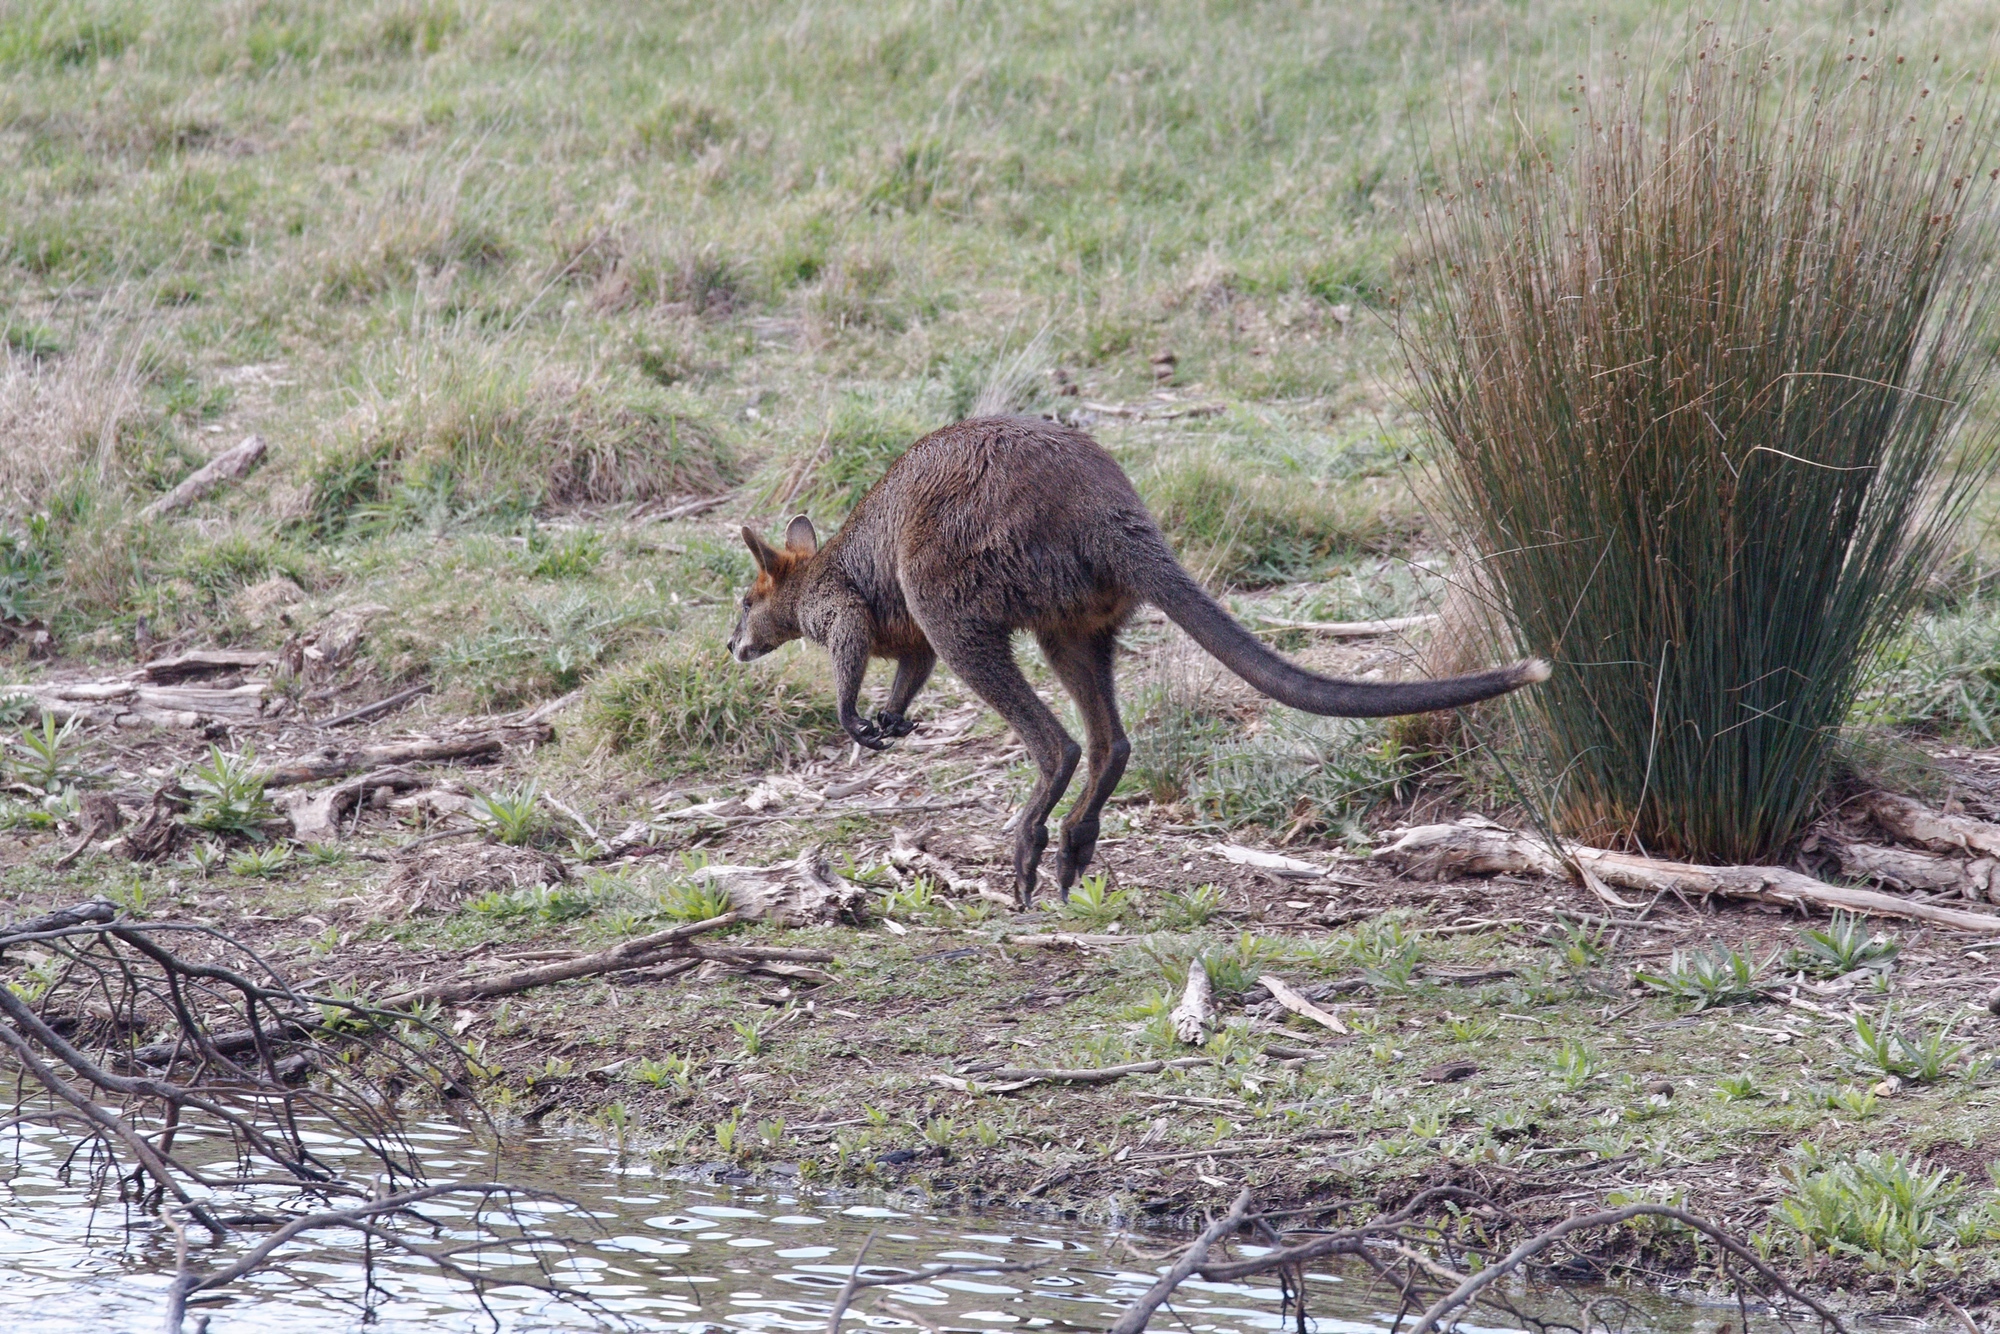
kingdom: Animalia
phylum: Chordata
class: Mammalia
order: Diprotodontia
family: Macropodidae
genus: Wallabia
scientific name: Wallabia bicolor
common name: Swamp wallaby
